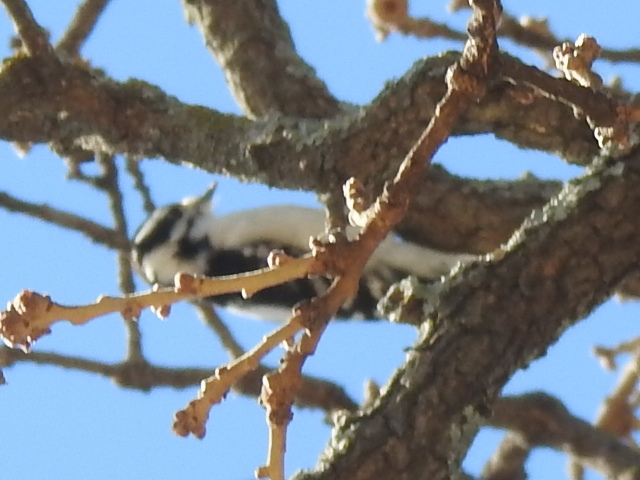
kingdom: Animalia
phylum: Chordata
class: Aves
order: Piciformes
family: Picidae
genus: Dryobates
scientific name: Dryobates pubescens
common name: Downy woodpecker
